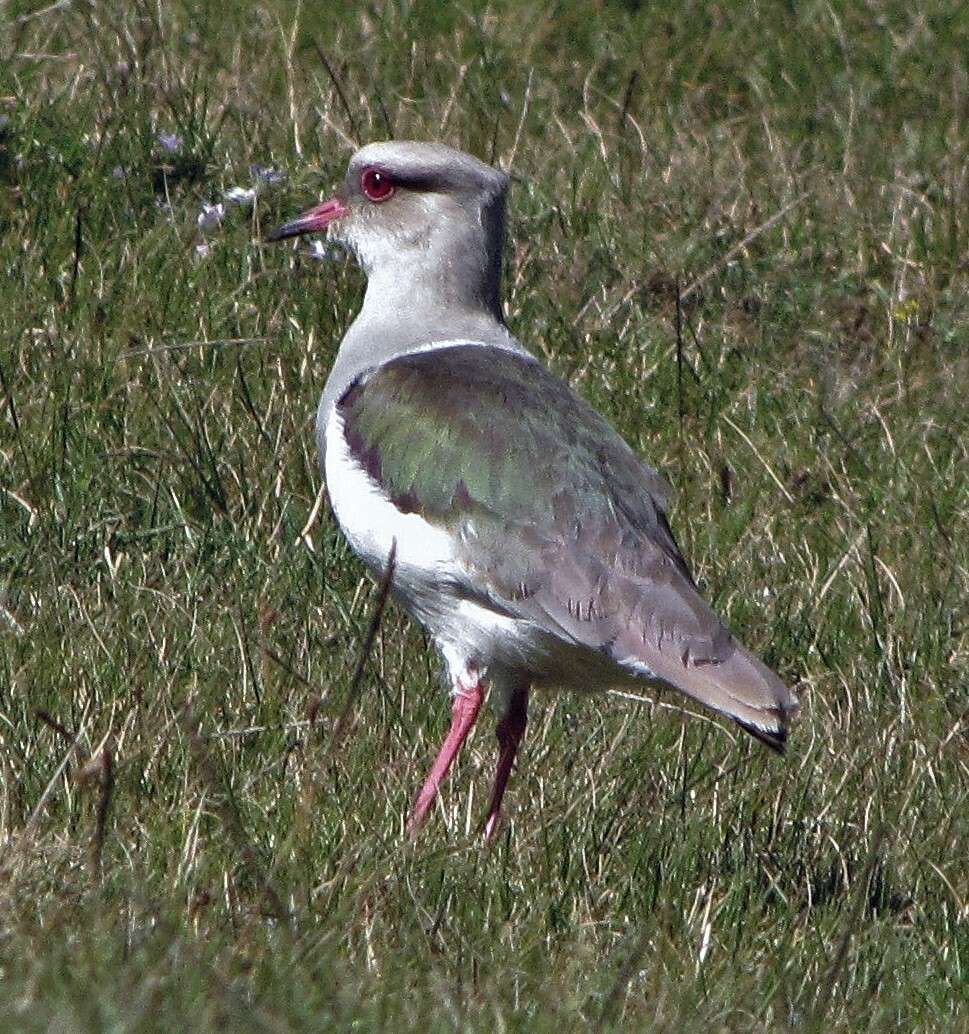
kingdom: Animalia
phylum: Chordata
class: Aves
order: Charadriiformes
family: Charadriidae
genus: Vanellus
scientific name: Vanellus resplendens
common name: Andean lapwing
